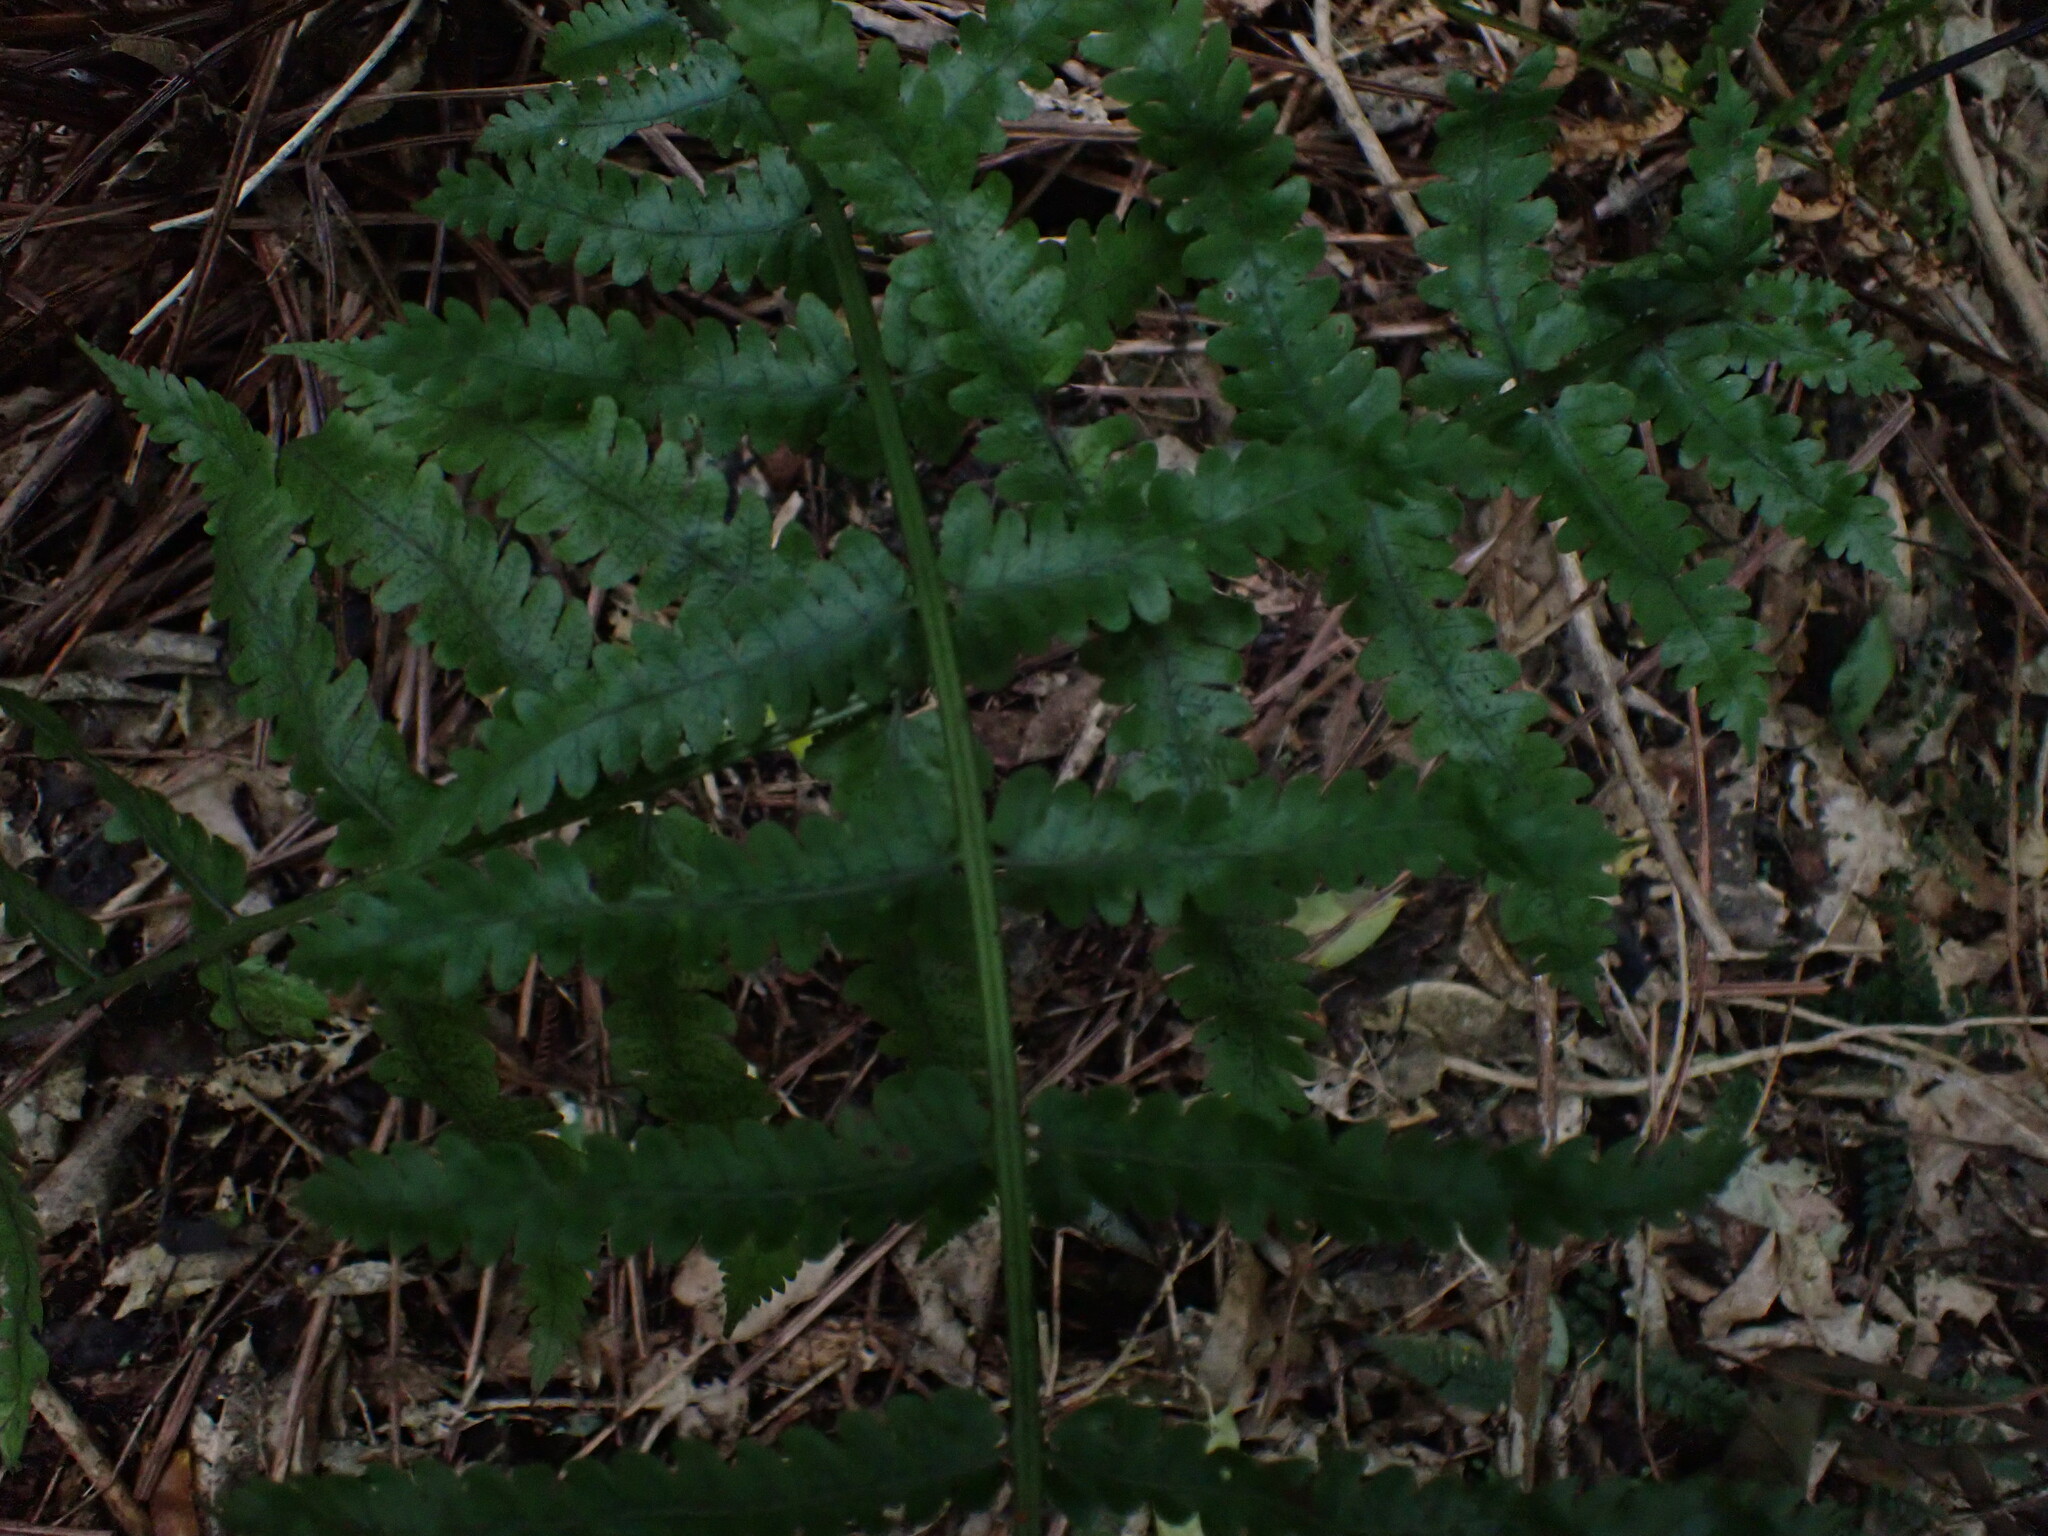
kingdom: Plantae
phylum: Tracheophyta
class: Polypodiopsida
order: Polypodiales
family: Thelypteridaceae
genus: Pakau
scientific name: Pakau pennigera
